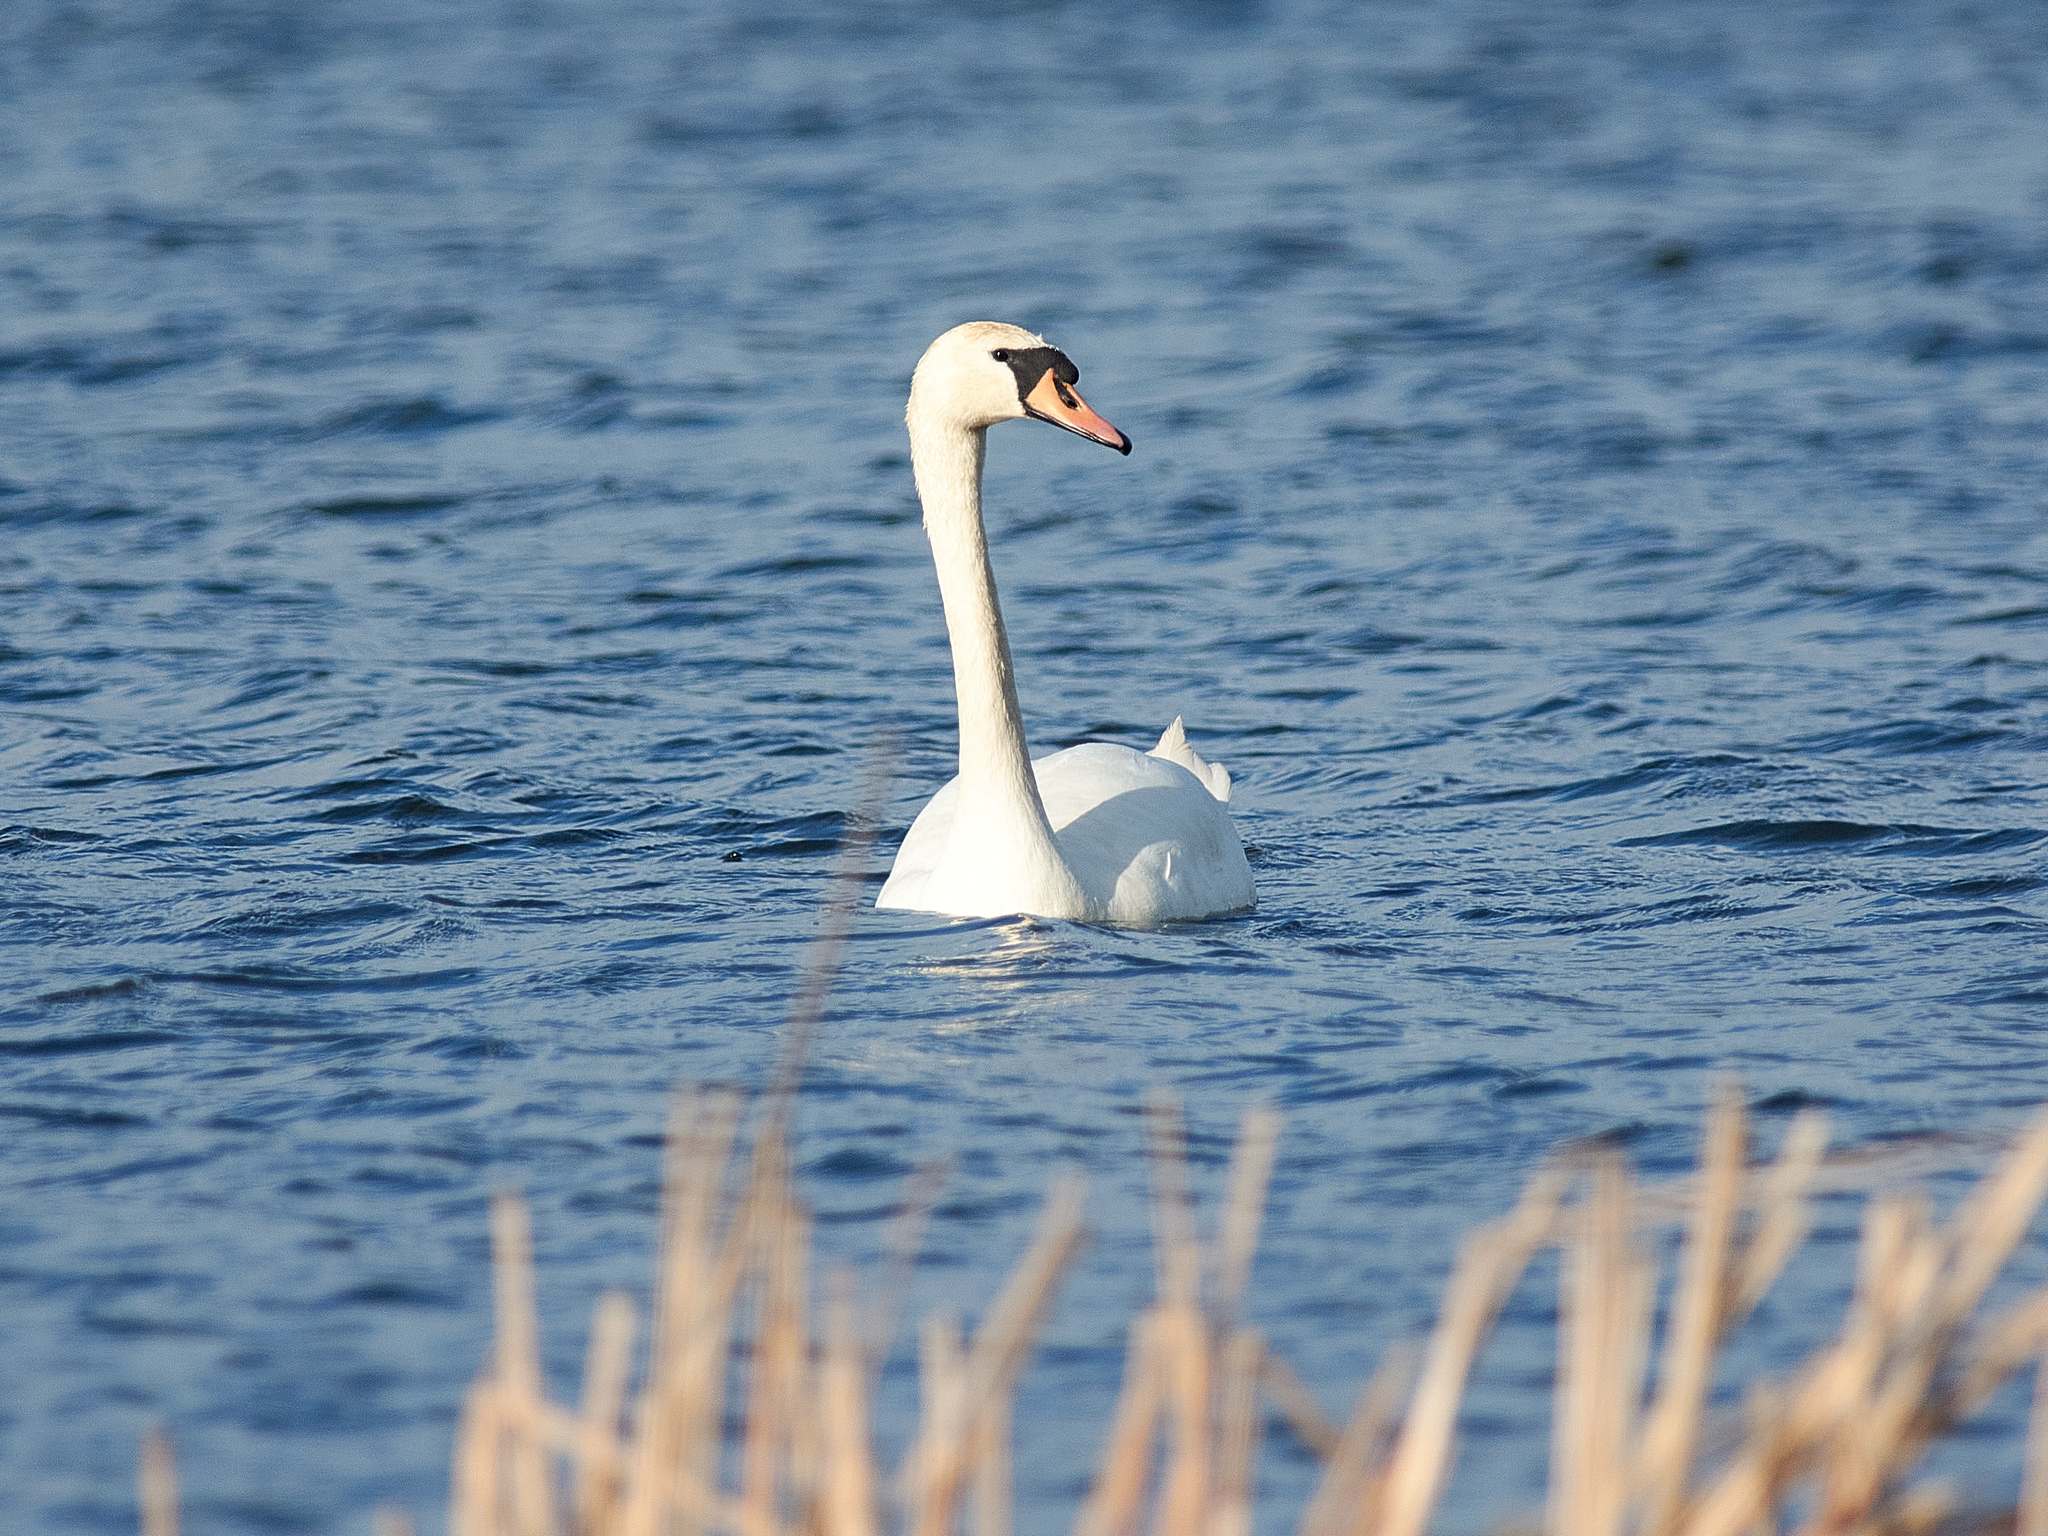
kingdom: Animalia
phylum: Chordata
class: Aves
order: Anseriformes
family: Anatidae
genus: Cygnus
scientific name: Cygnus olor
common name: Mute swan
